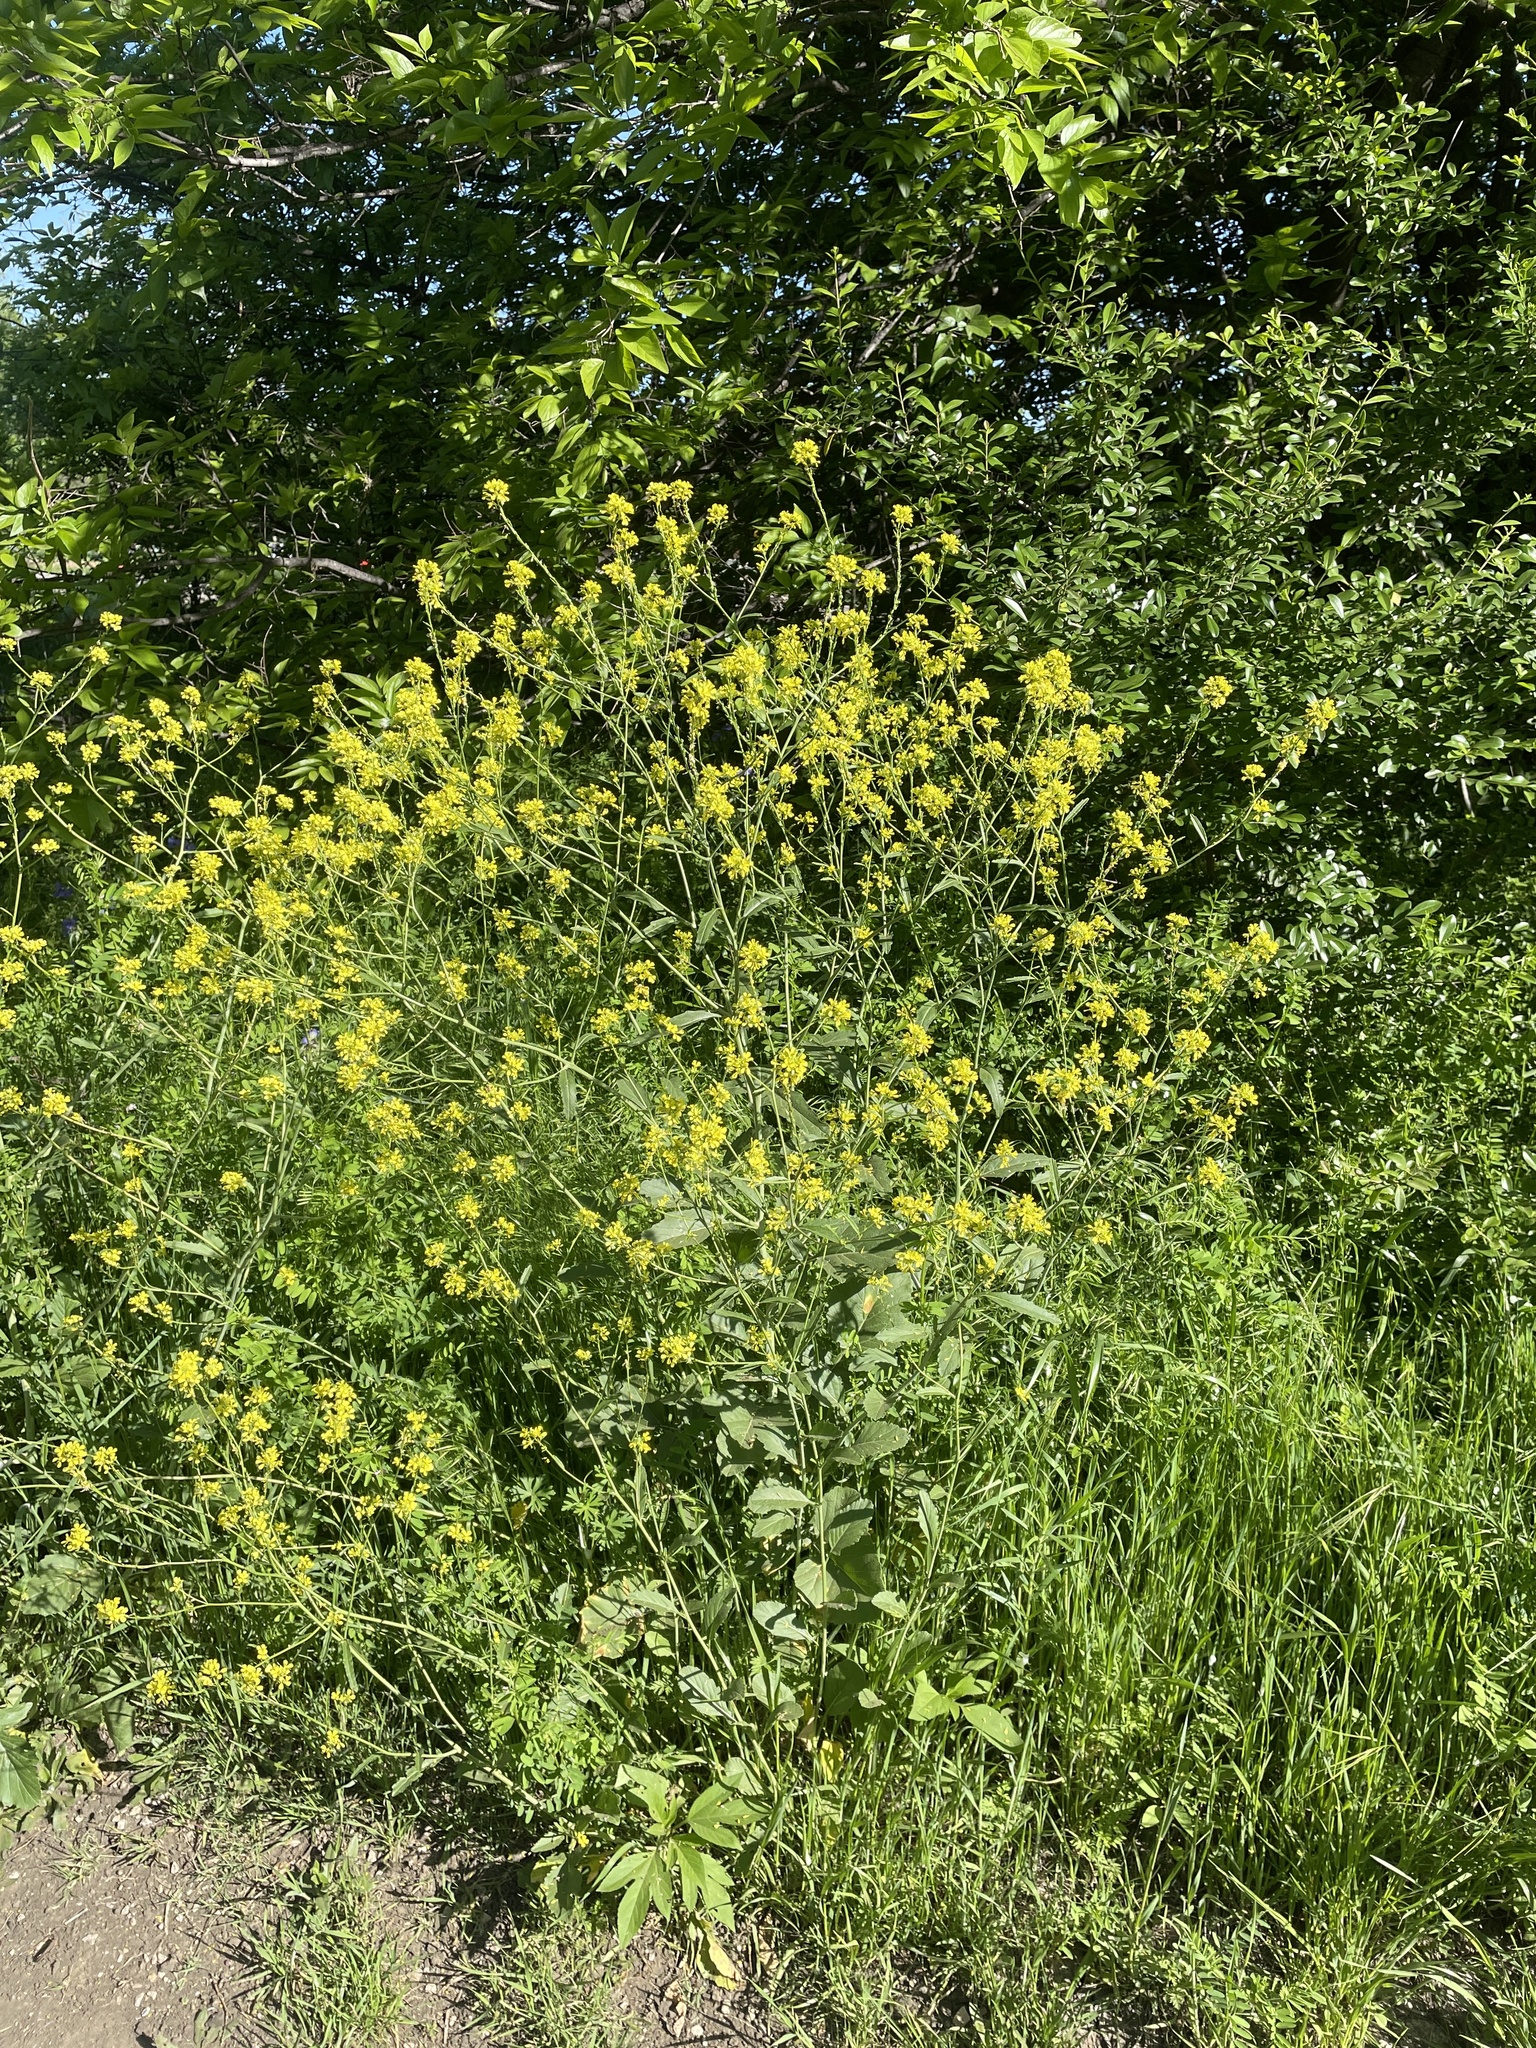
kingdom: Plantae
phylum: Tracheophyta
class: Magnoliopsida
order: Brassicales
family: Brassicaceae
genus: Rapistrum
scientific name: Rapistrum rugosum
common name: Annual bastardcabbage
